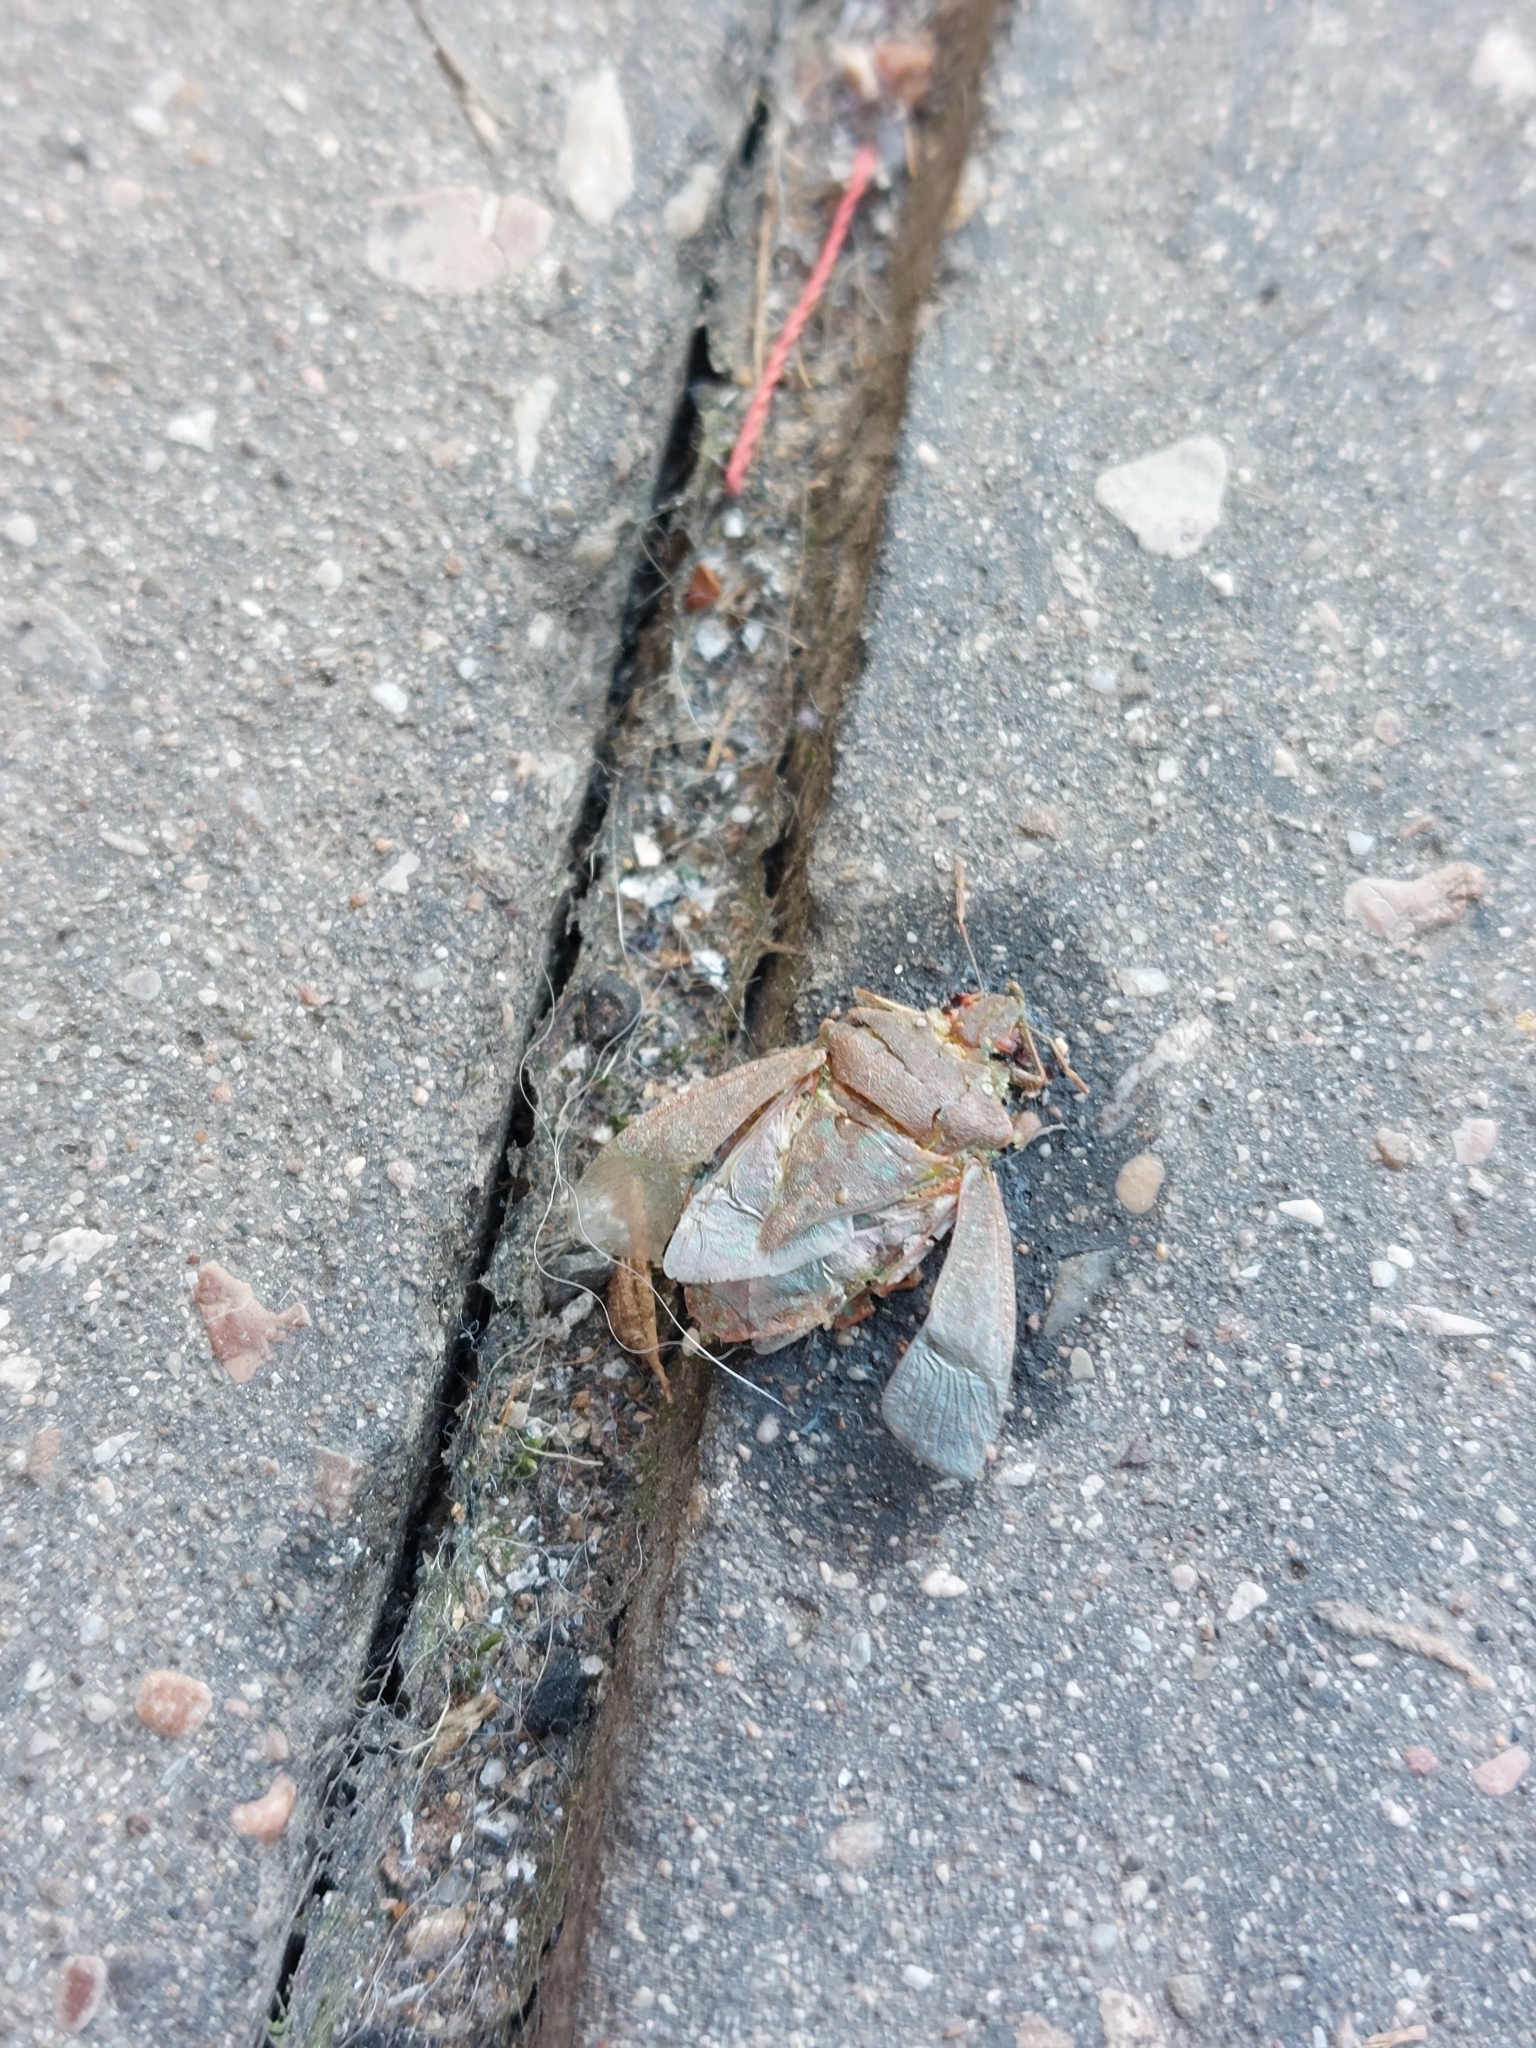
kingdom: Animalia
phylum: Arthropoda
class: Insecta
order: Hemiptera
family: Pentatomidae
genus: Palomena
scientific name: Palomena prasina
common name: Green shieldbug
